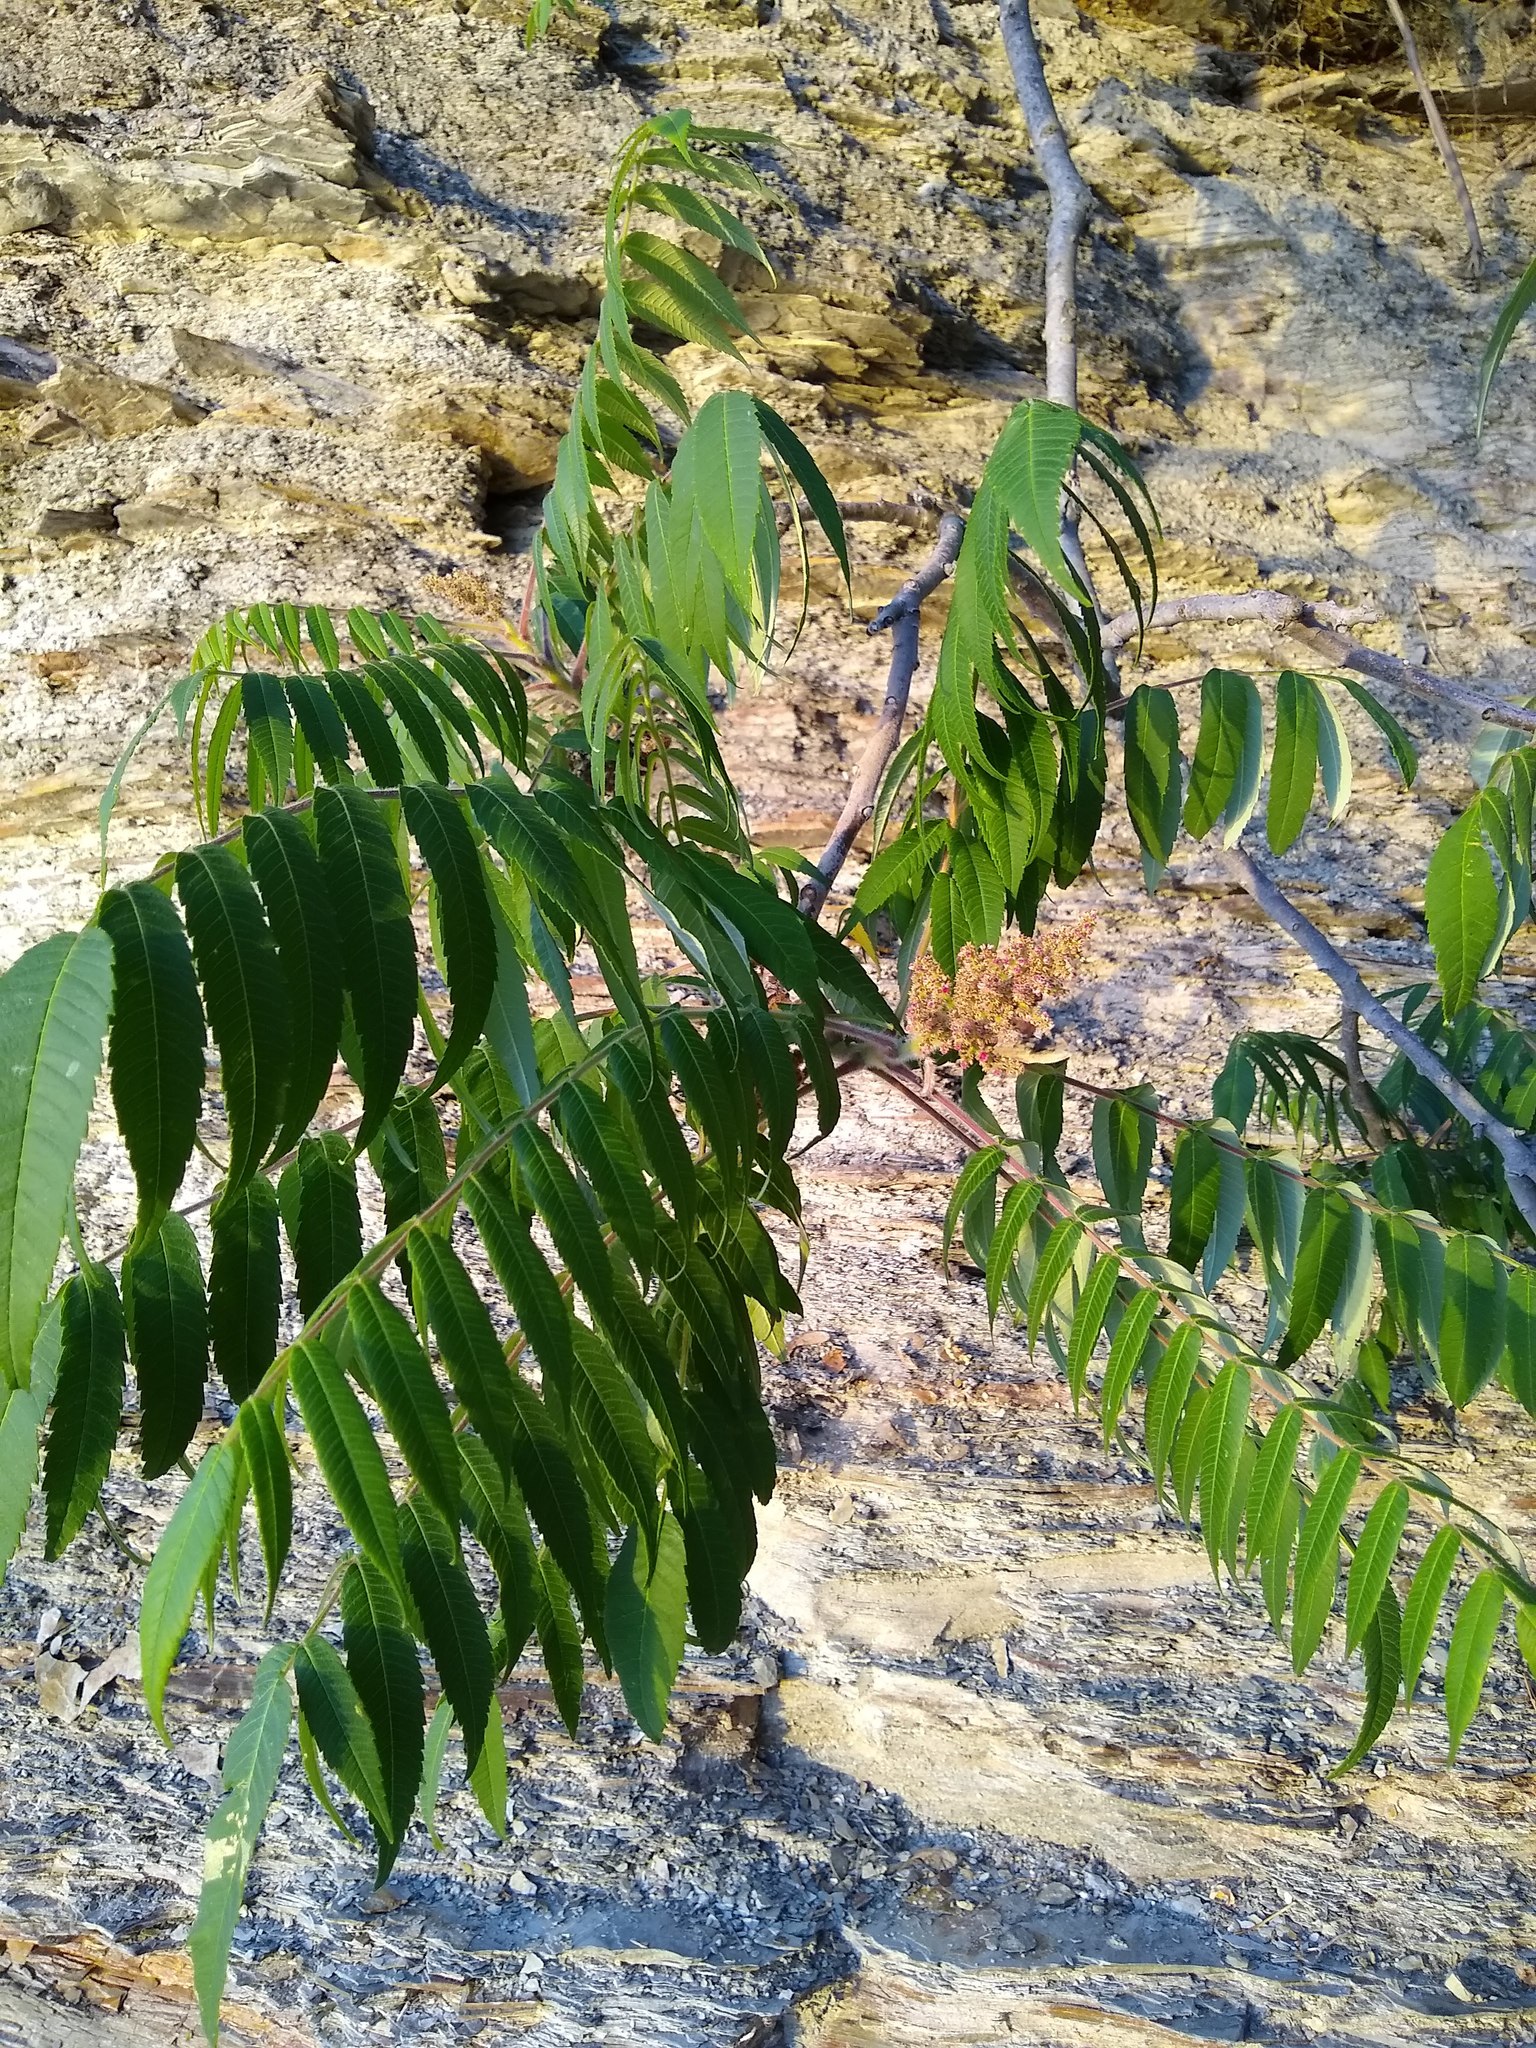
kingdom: Plantae
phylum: Tracheophyta
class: Magnoliopsida
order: Sapindales
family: Anacardiaceae
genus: Rhus
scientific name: Rhus typhina
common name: Staghorn sumac
